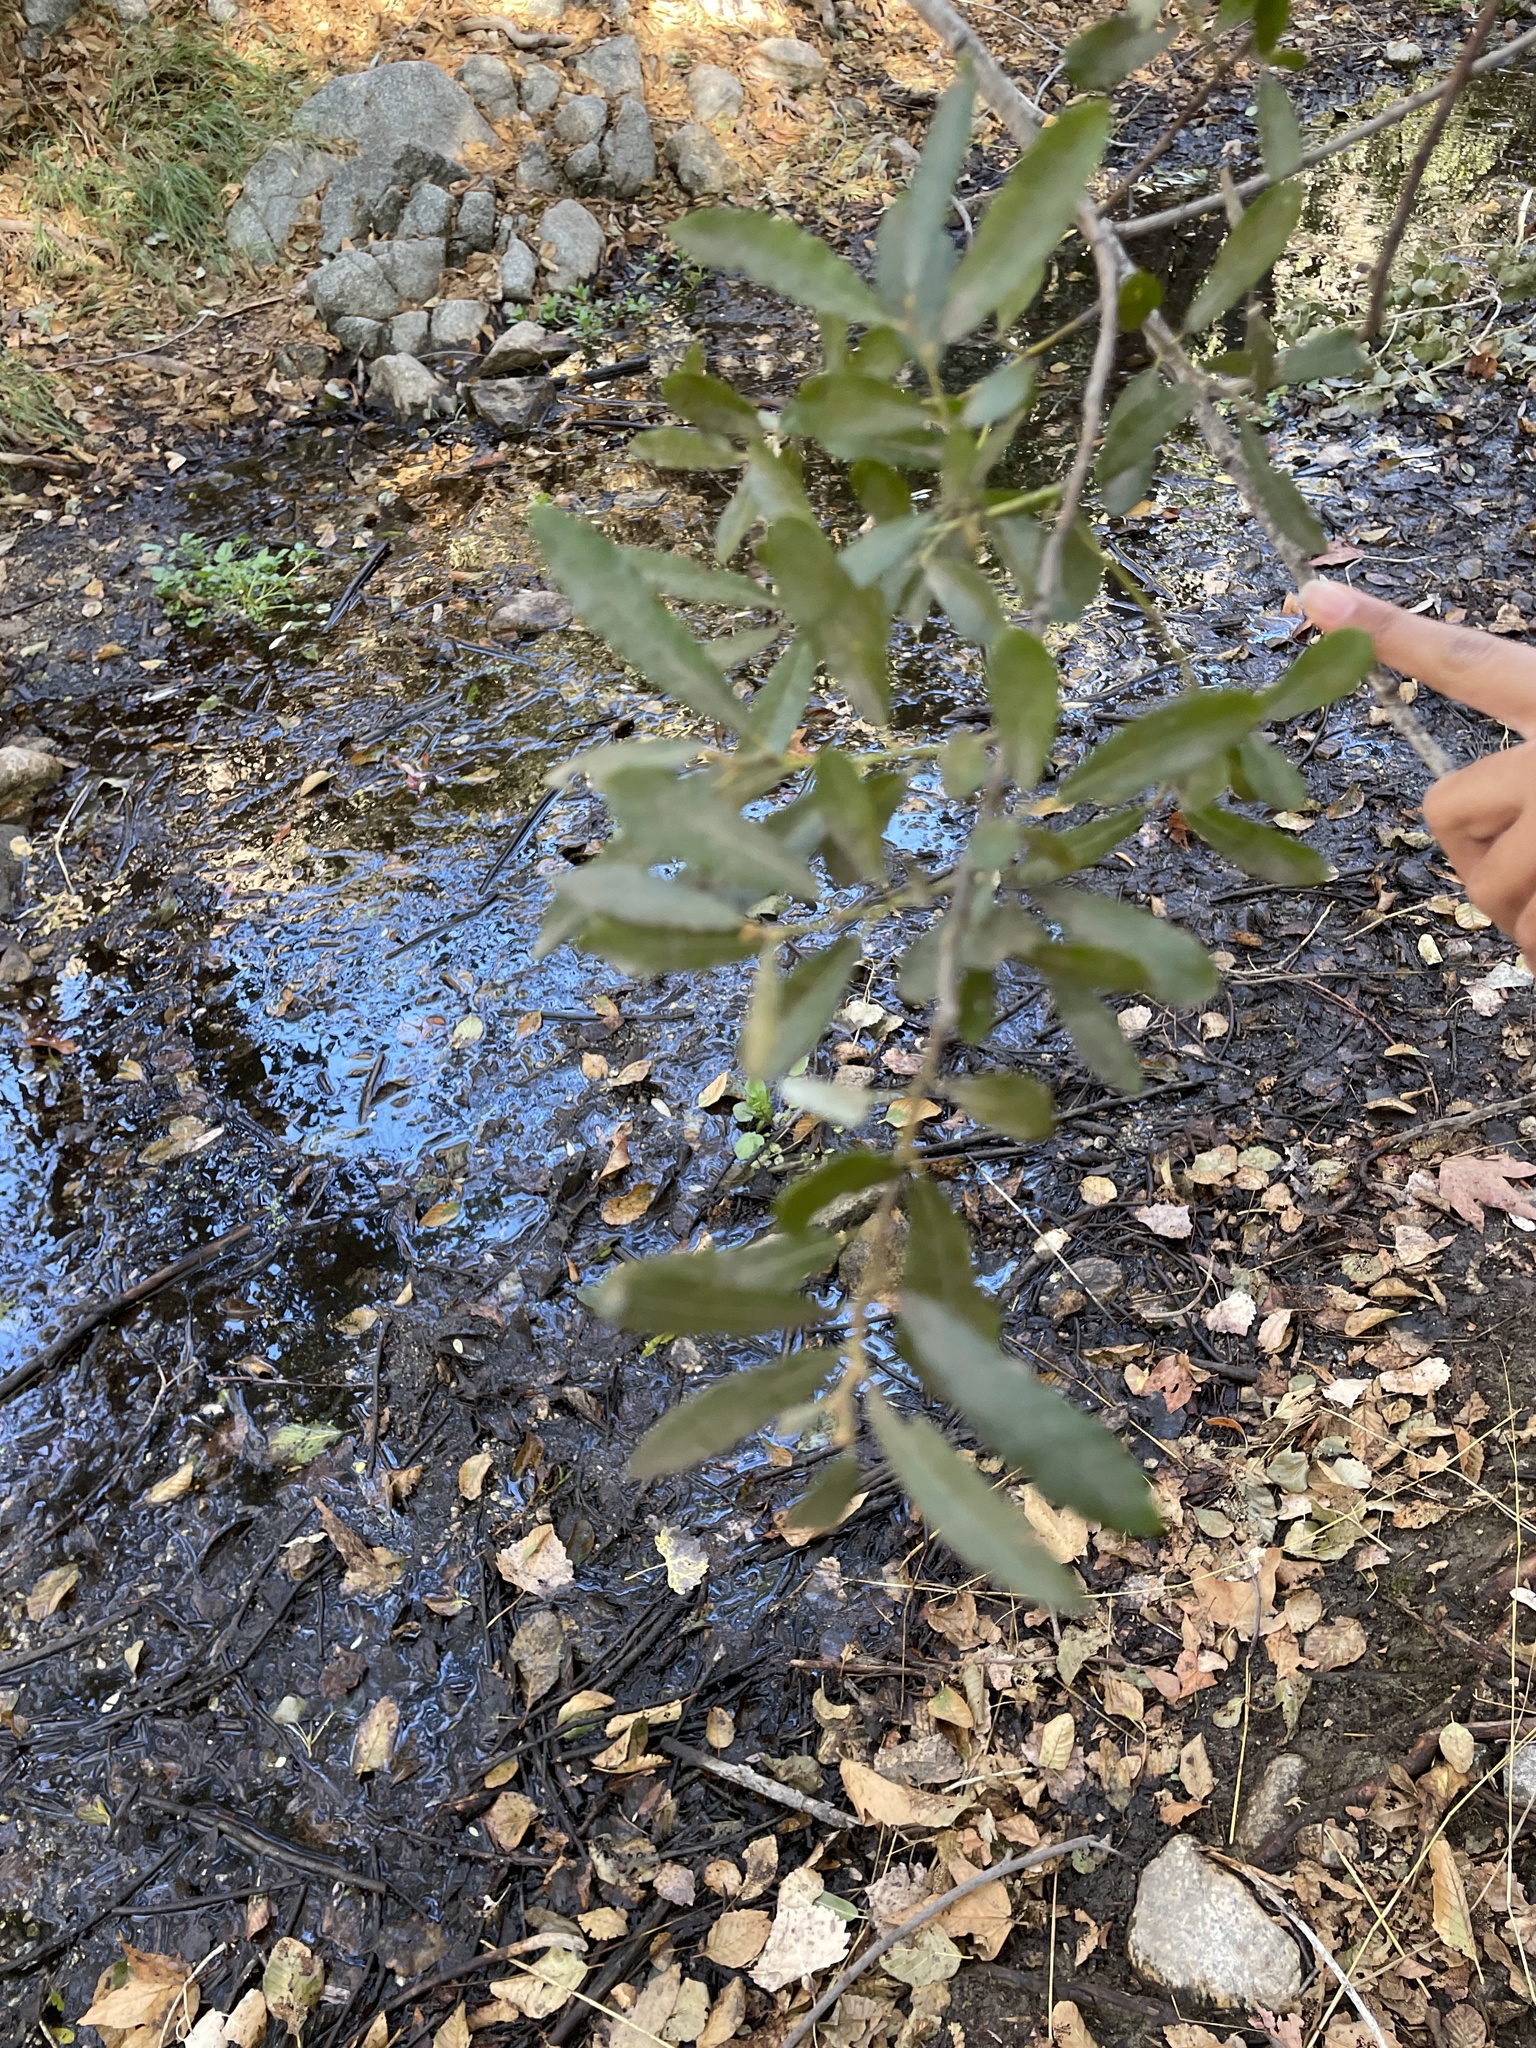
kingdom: Plantae
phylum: Tracheophyta
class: Magnoliopsida
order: Fagales
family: Fagaceae
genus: Quercus
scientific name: Quercus engelmannii
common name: Engelmann oak
